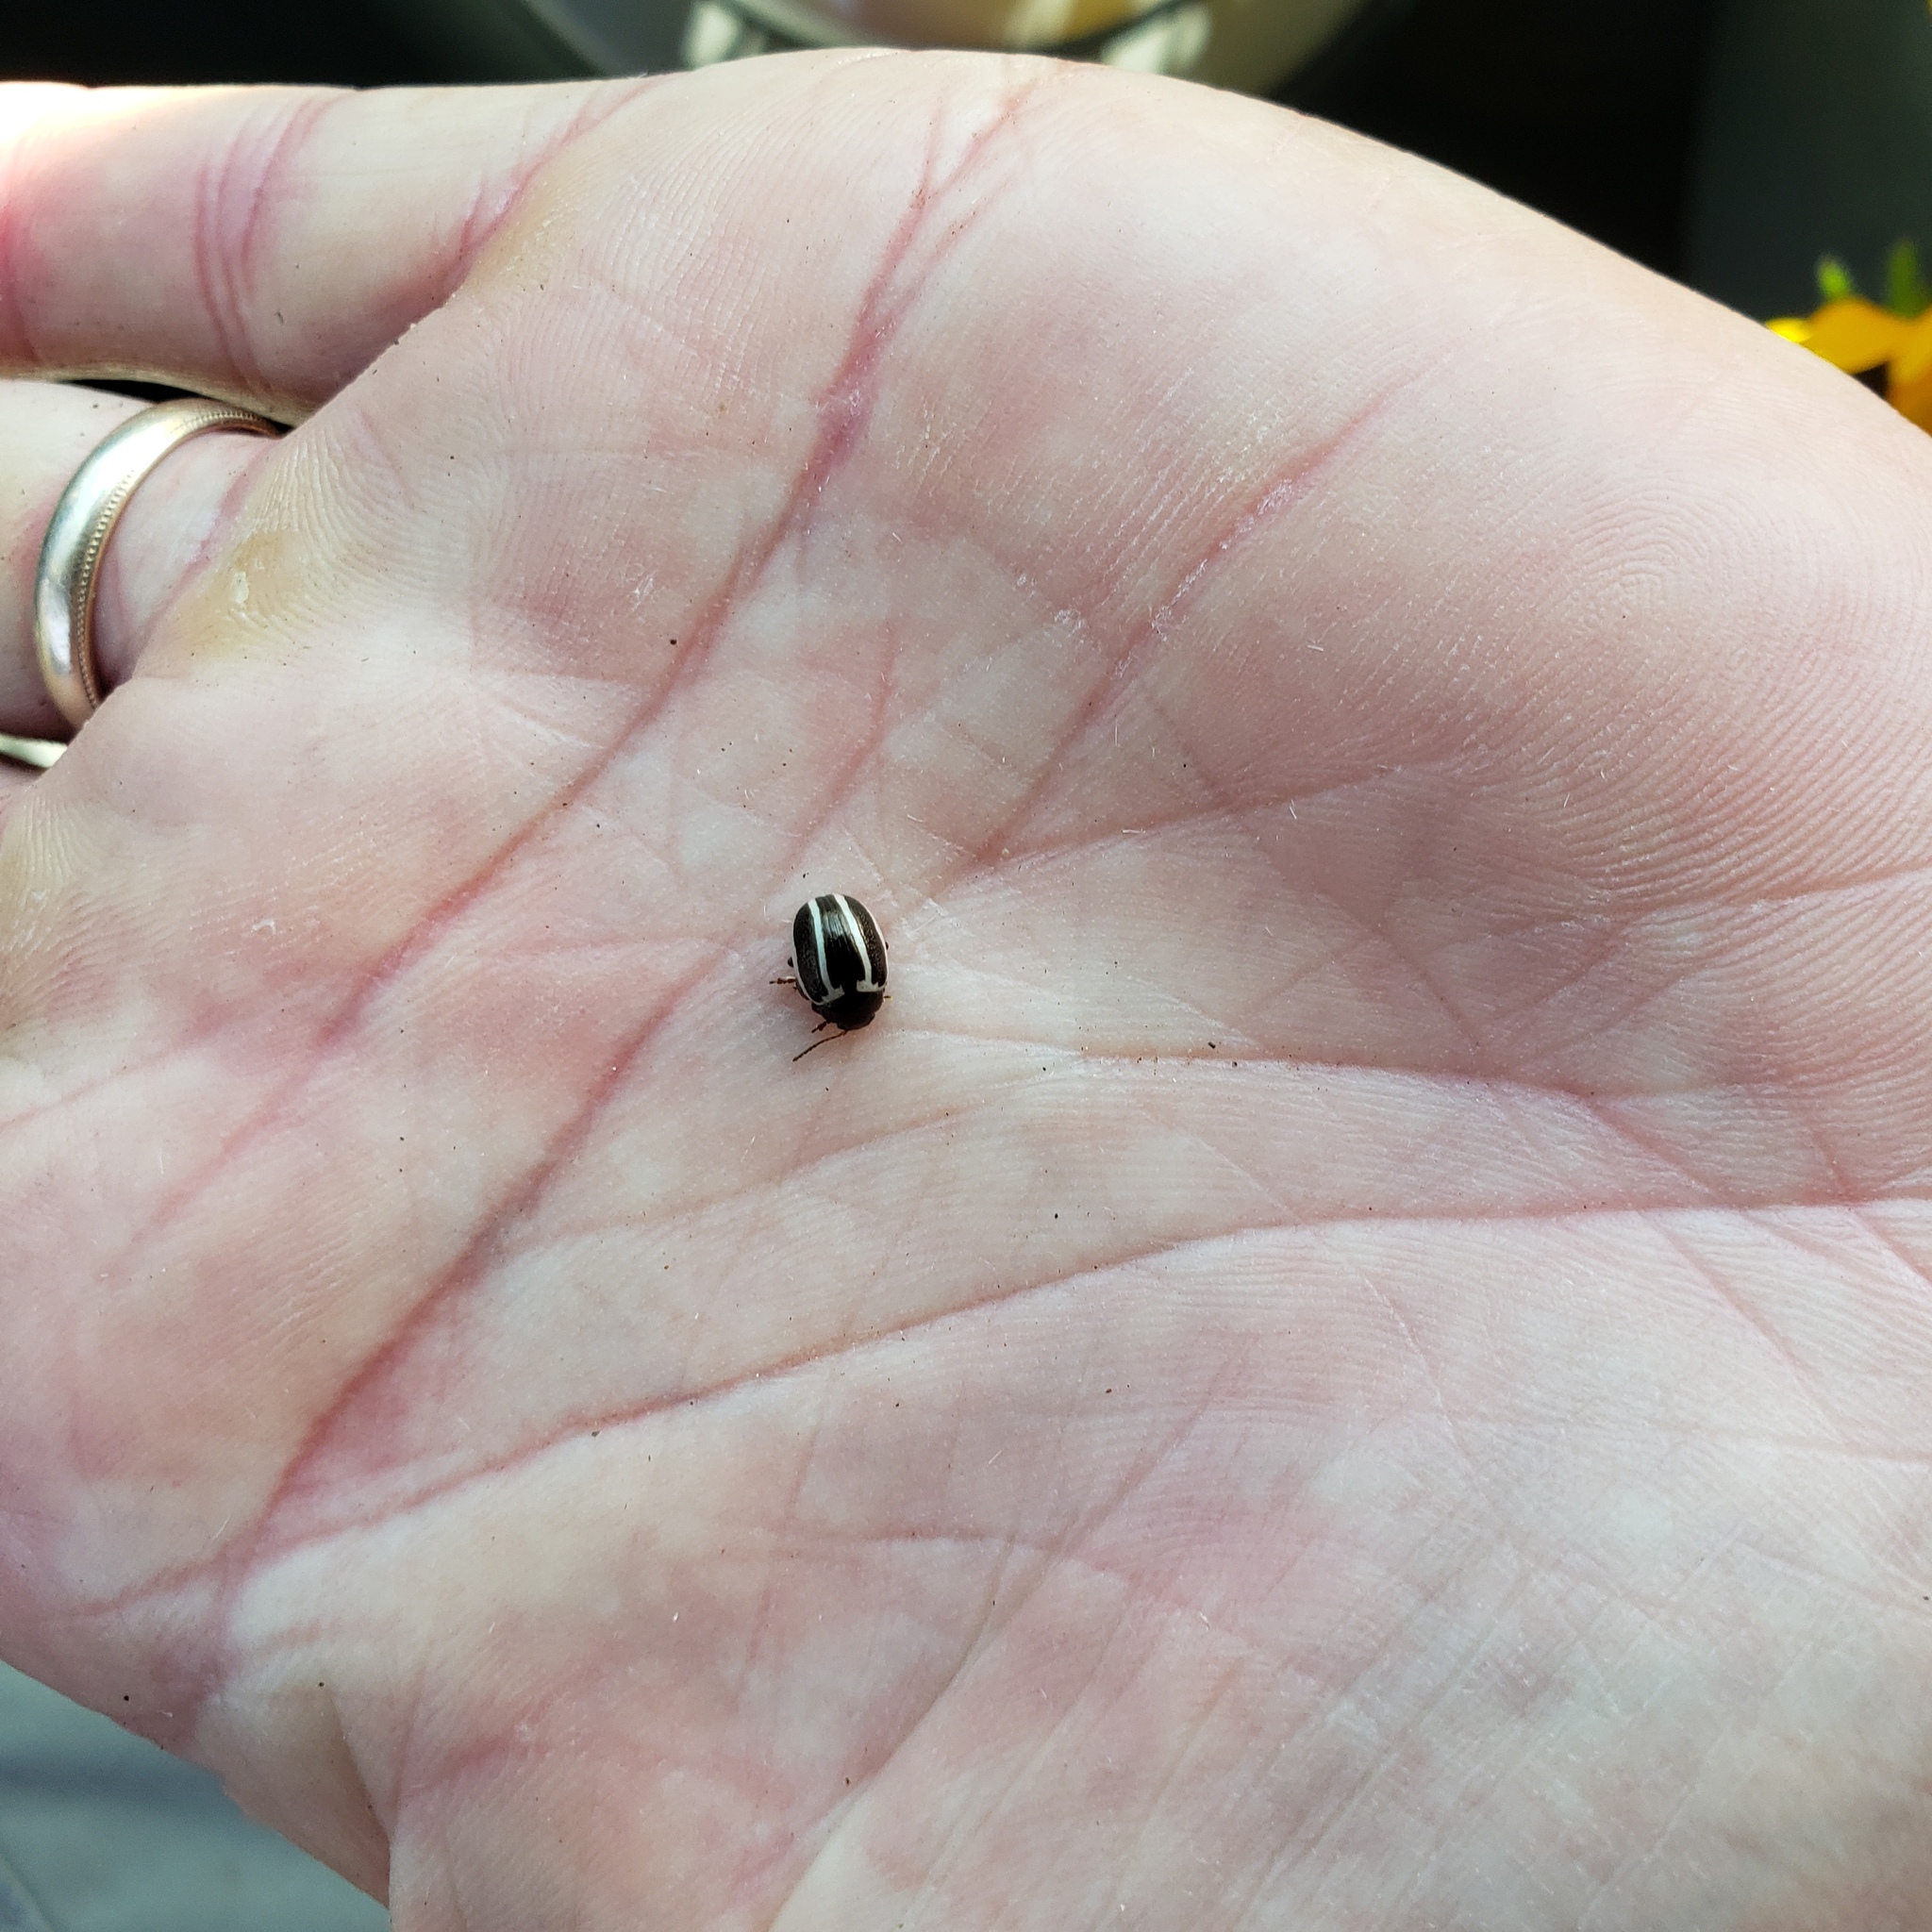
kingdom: Animalia
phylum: Arthropoda
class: Insecta
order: Coleoptera
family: Chrysomelidae
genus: Calligrapha
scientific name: Calligrapha
